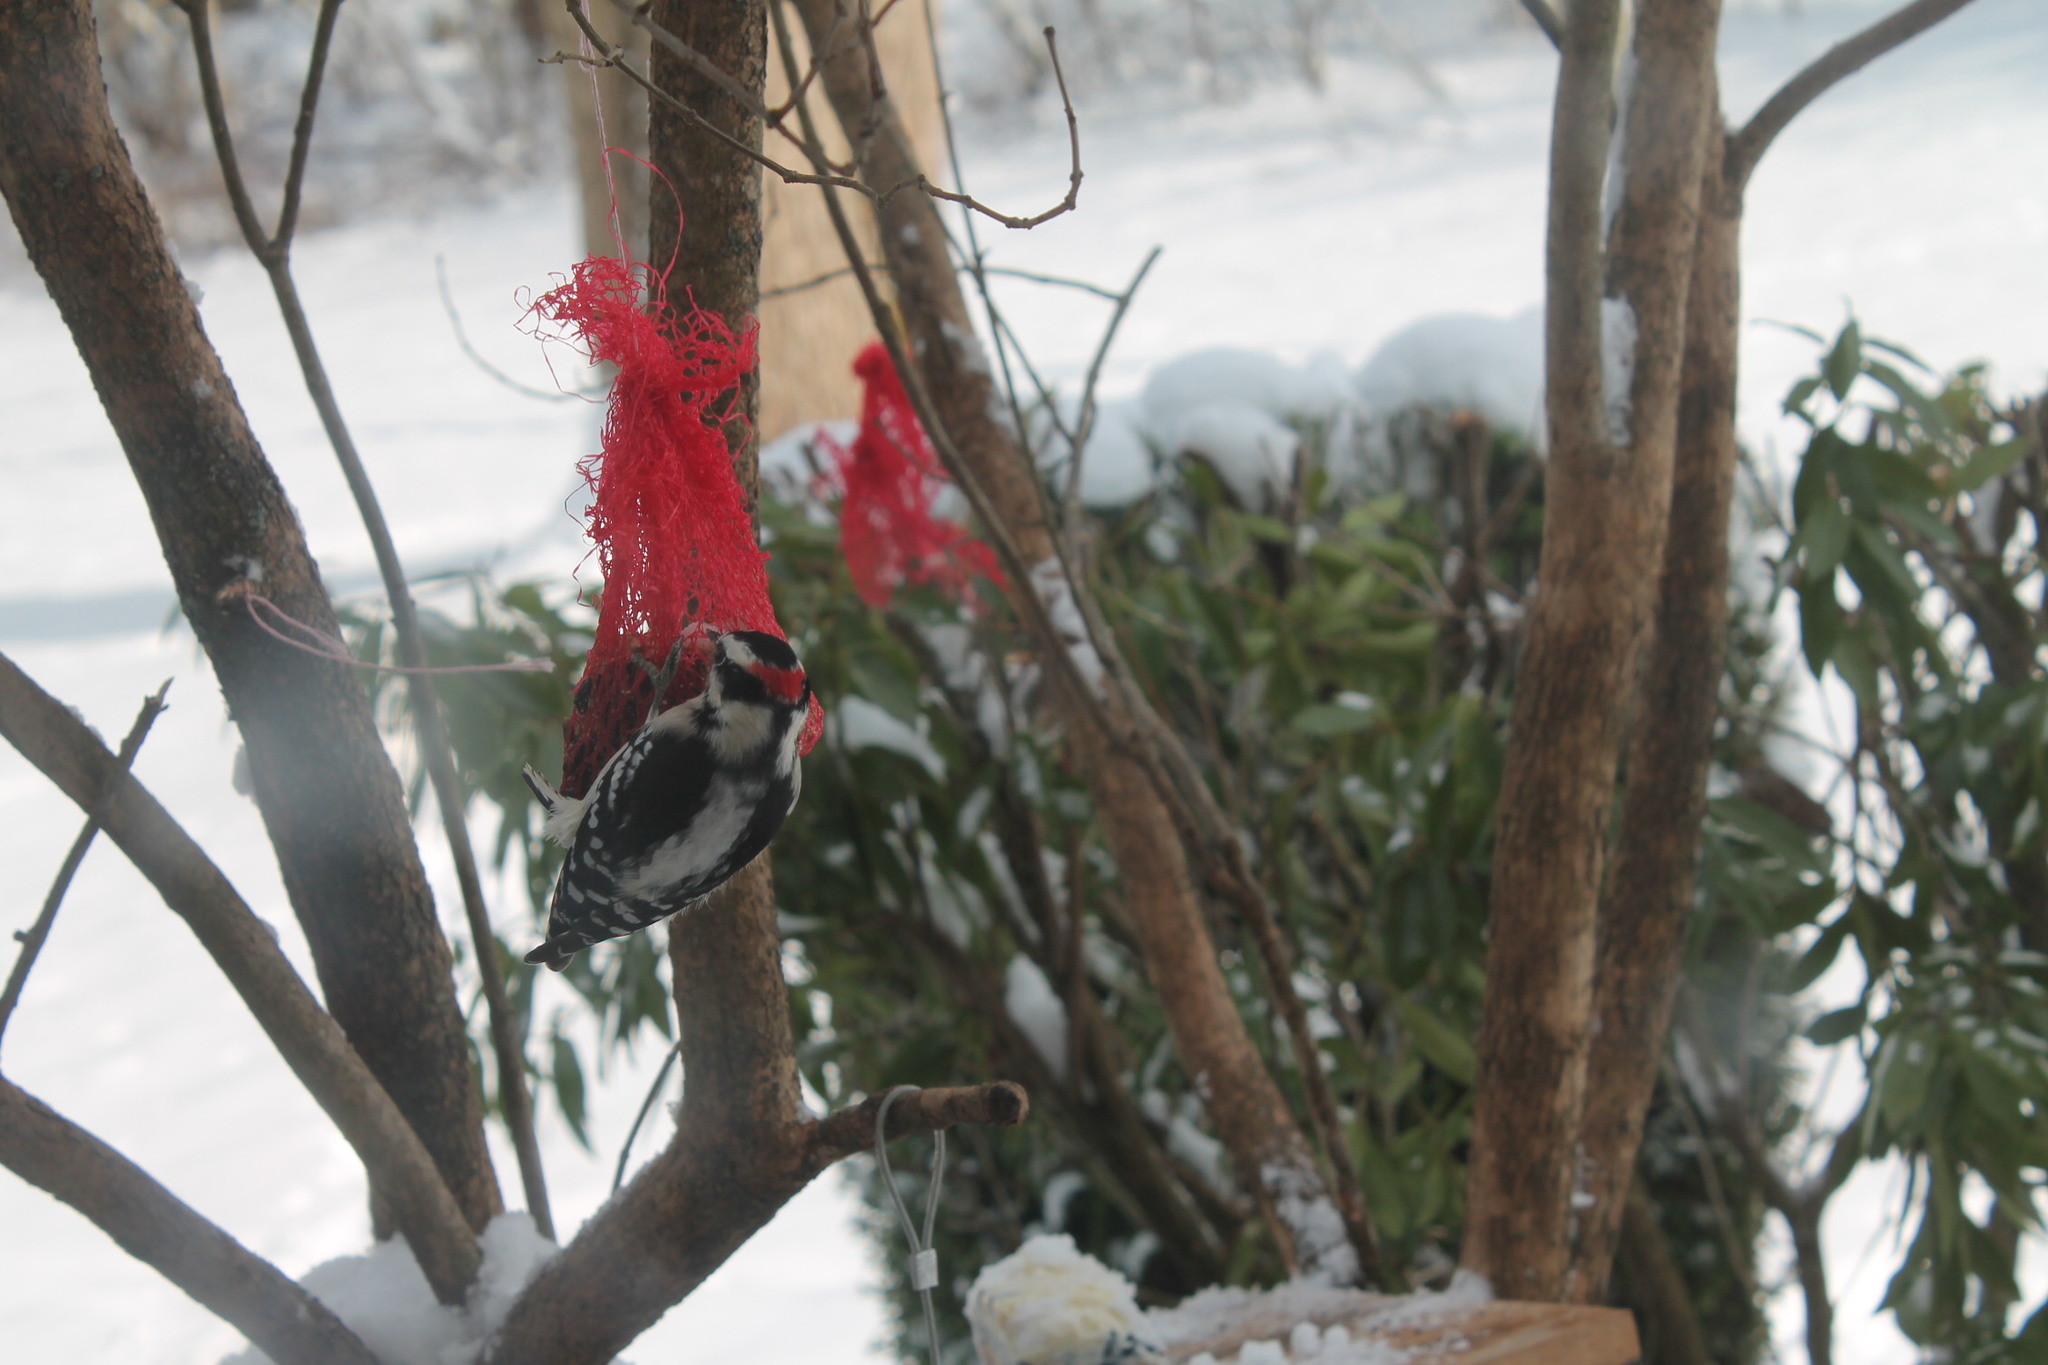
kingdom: Animalia
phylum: Chordata
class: Aves
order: Piciformes
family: Picidae
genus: Dryobates
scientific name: Dryobates pubescens
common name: Downy woodpecker
